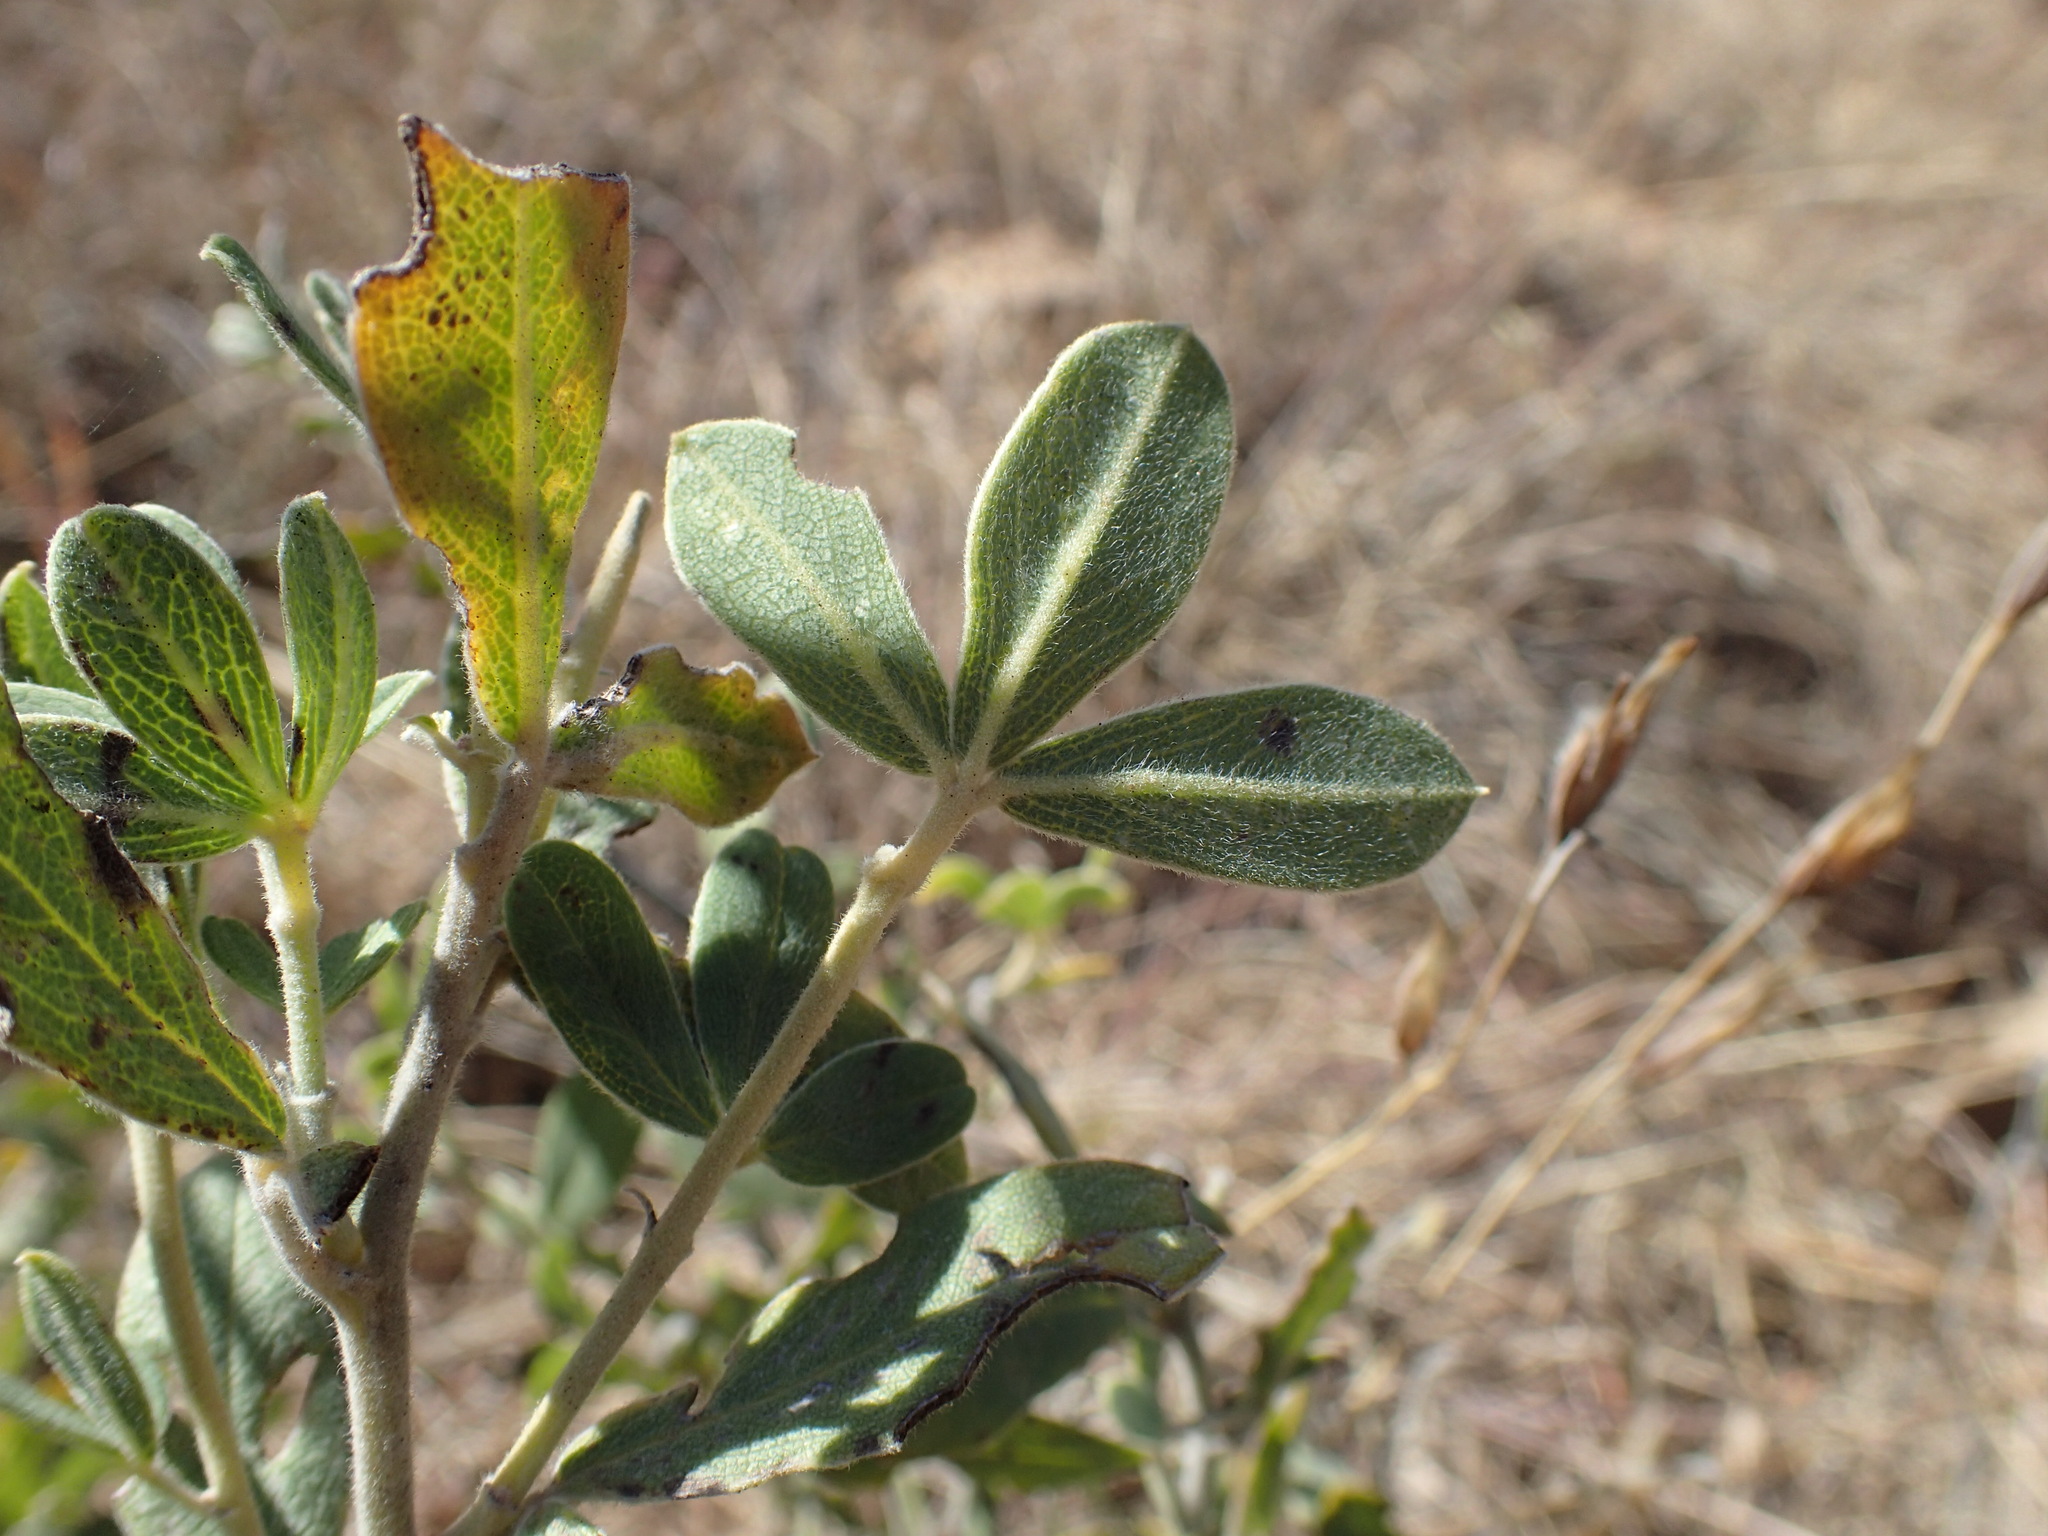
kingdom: Plantae
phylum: Tracheophyta
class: Magnoliopsida
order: Fabales
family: Fabaceae
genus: Argyrolobium
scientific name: Argyrolobium wilmsii
